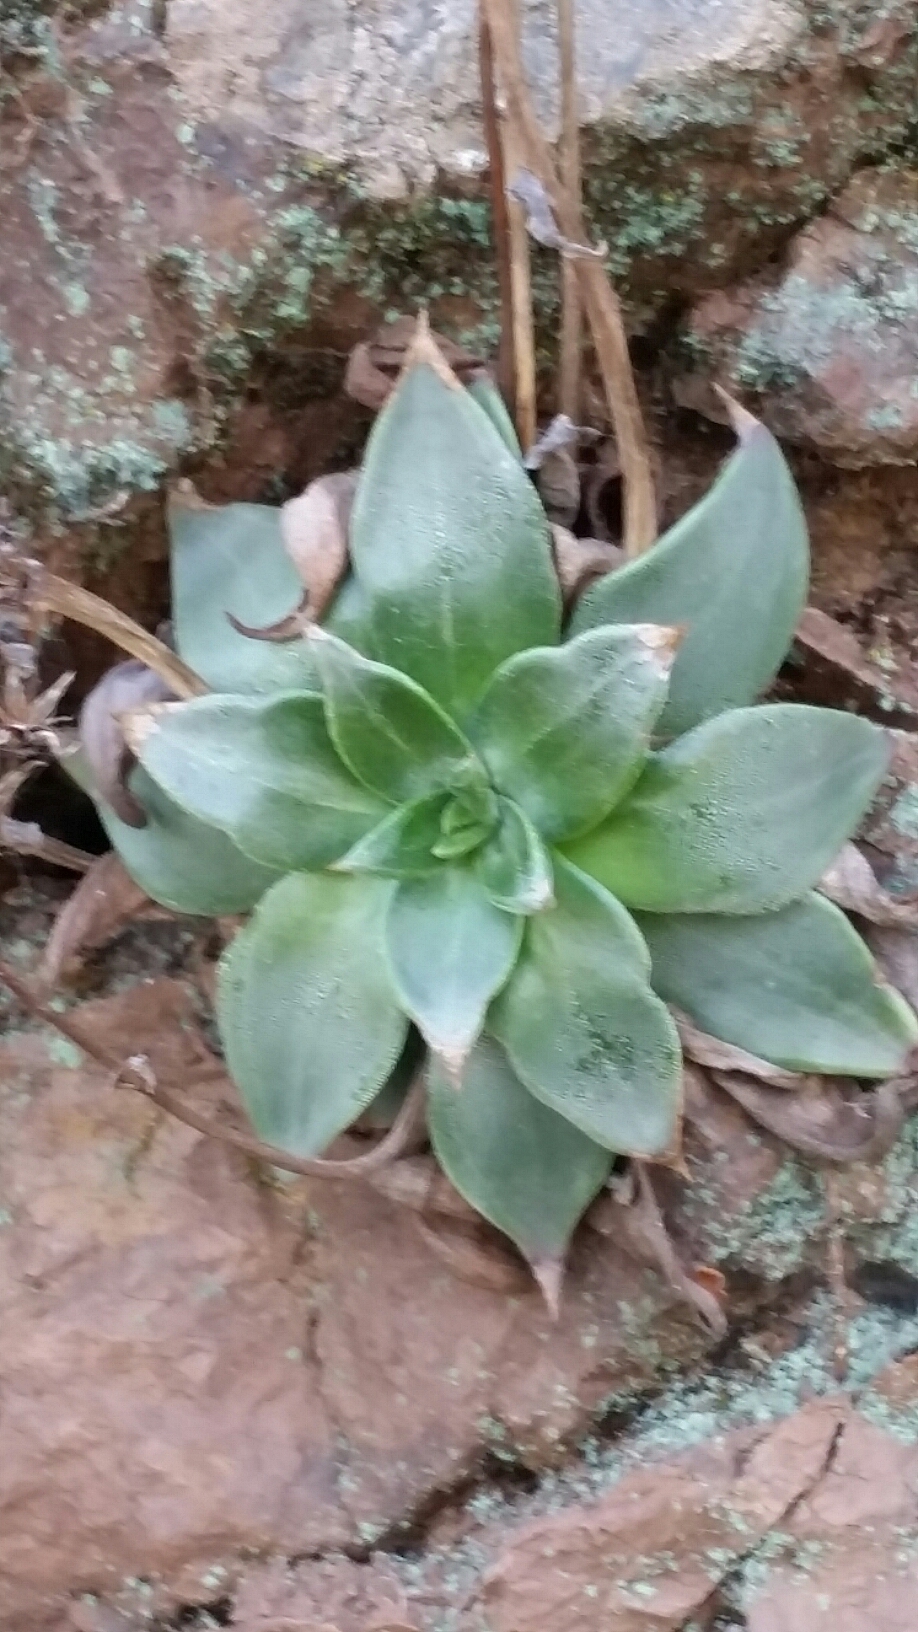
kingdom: Plantae
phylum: Tracheophyta
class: Magnoliopsida
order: Saxifragales
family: Crassulaceae
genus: Dudleya
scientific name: Dudleya cymosa
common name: Canyon dudleya
